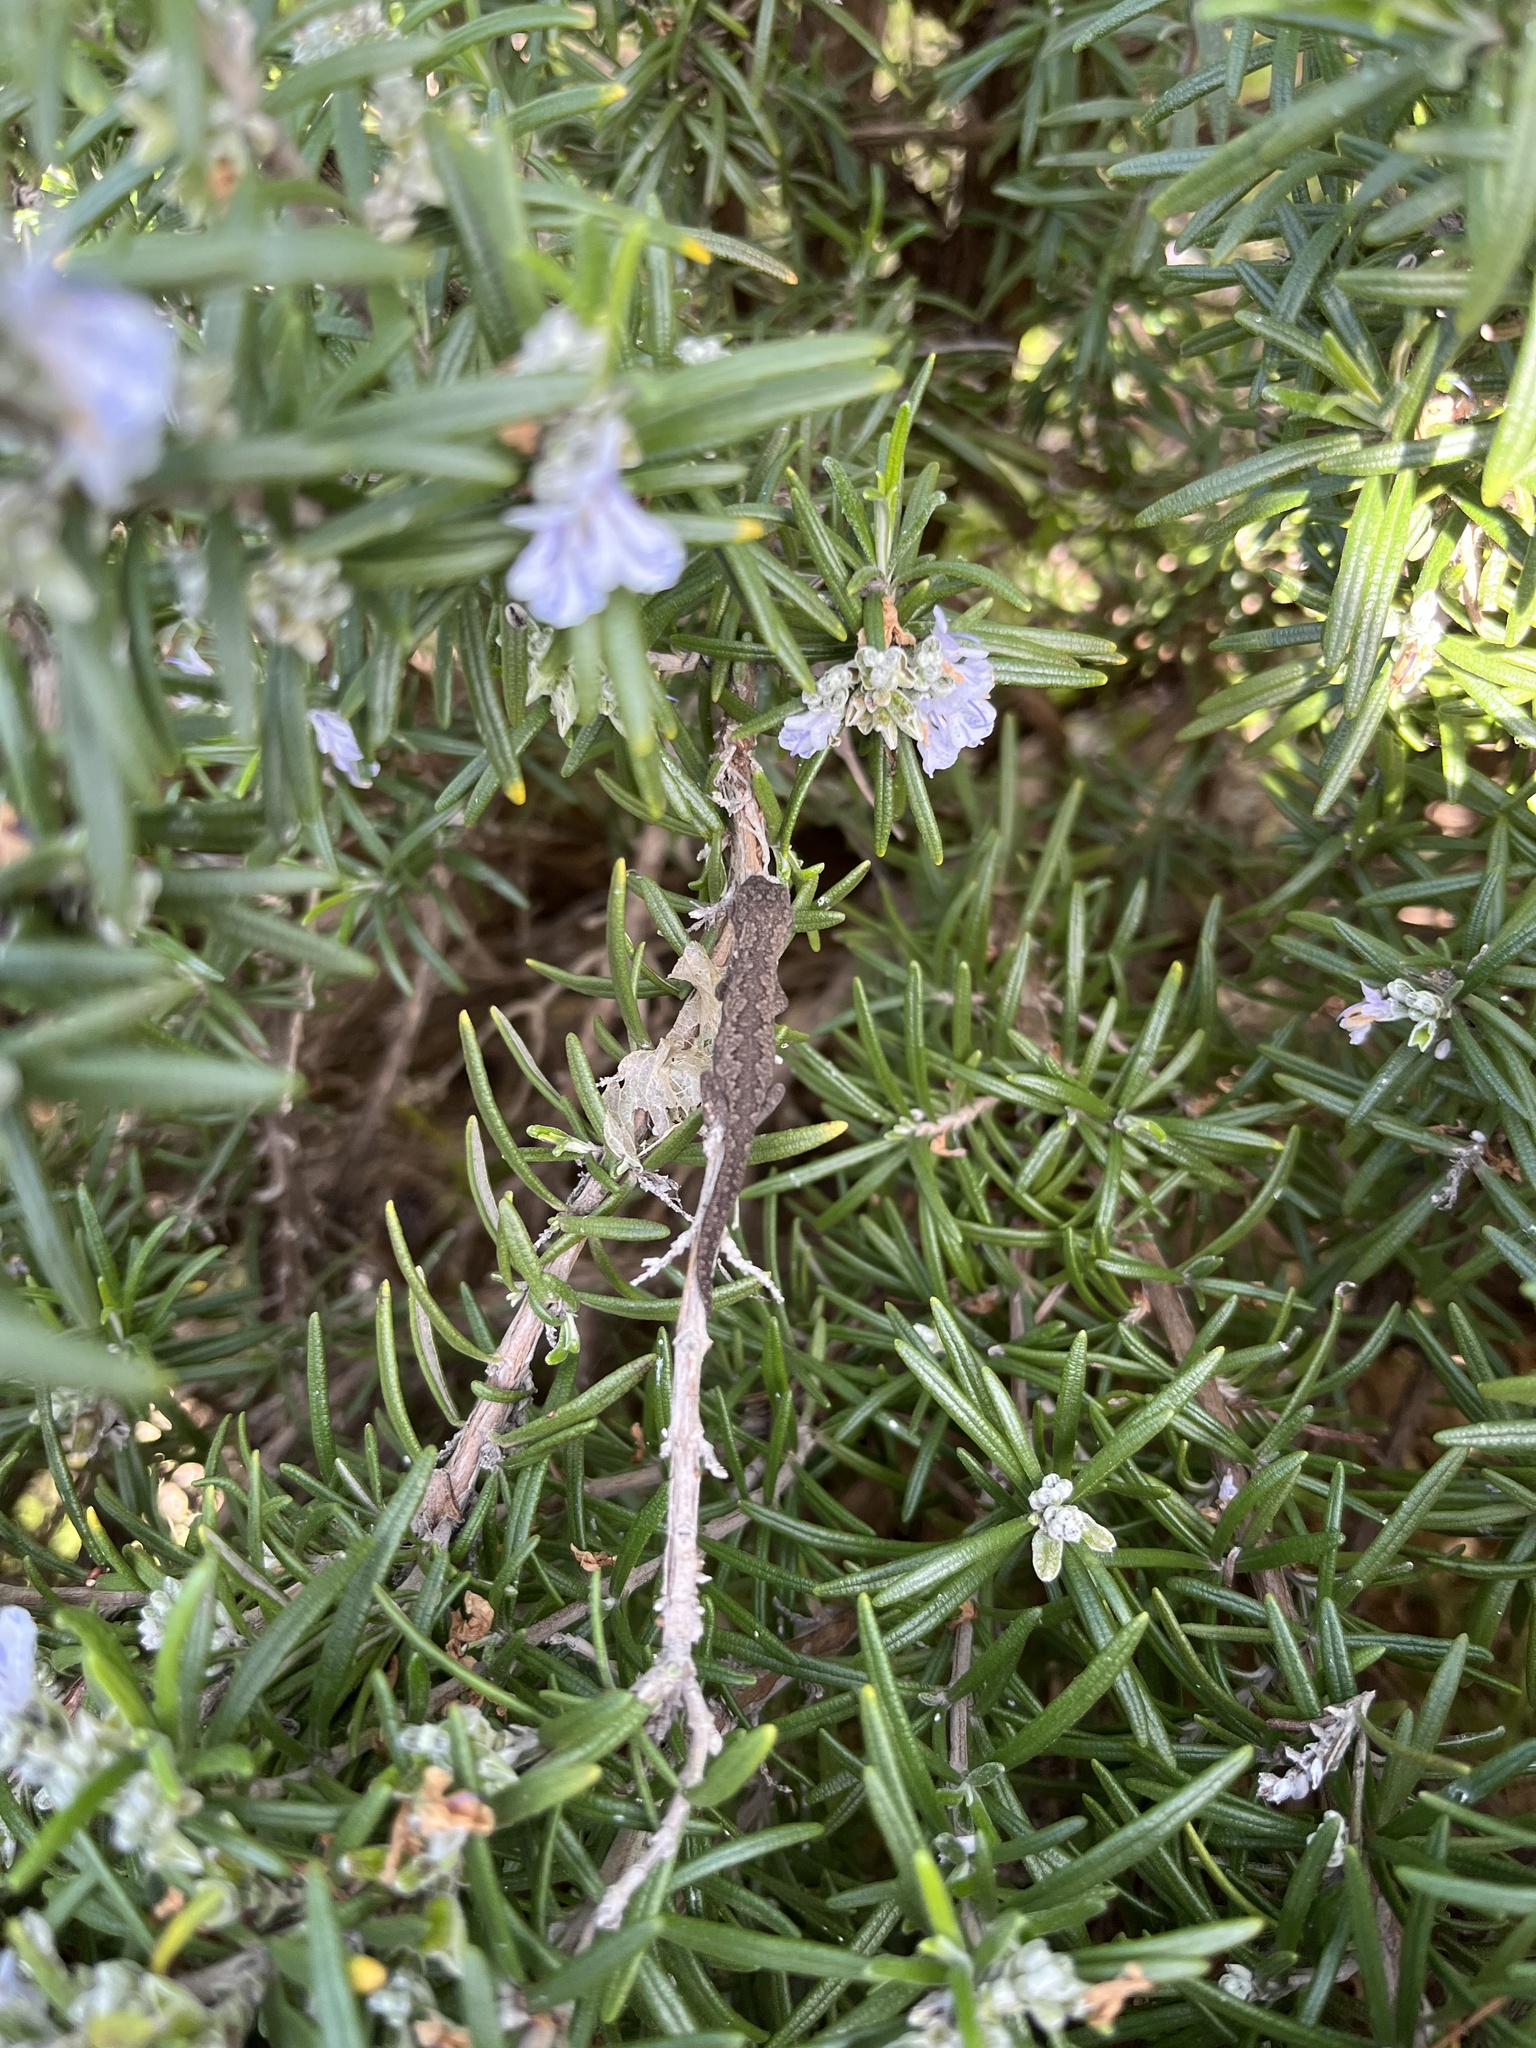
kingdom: Animalia
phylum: Chordata
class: Squamata
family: Diplodactylidae
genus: Strophurus
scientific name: Strophurus intermedius
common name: Eastern spiny-tailed gecko
